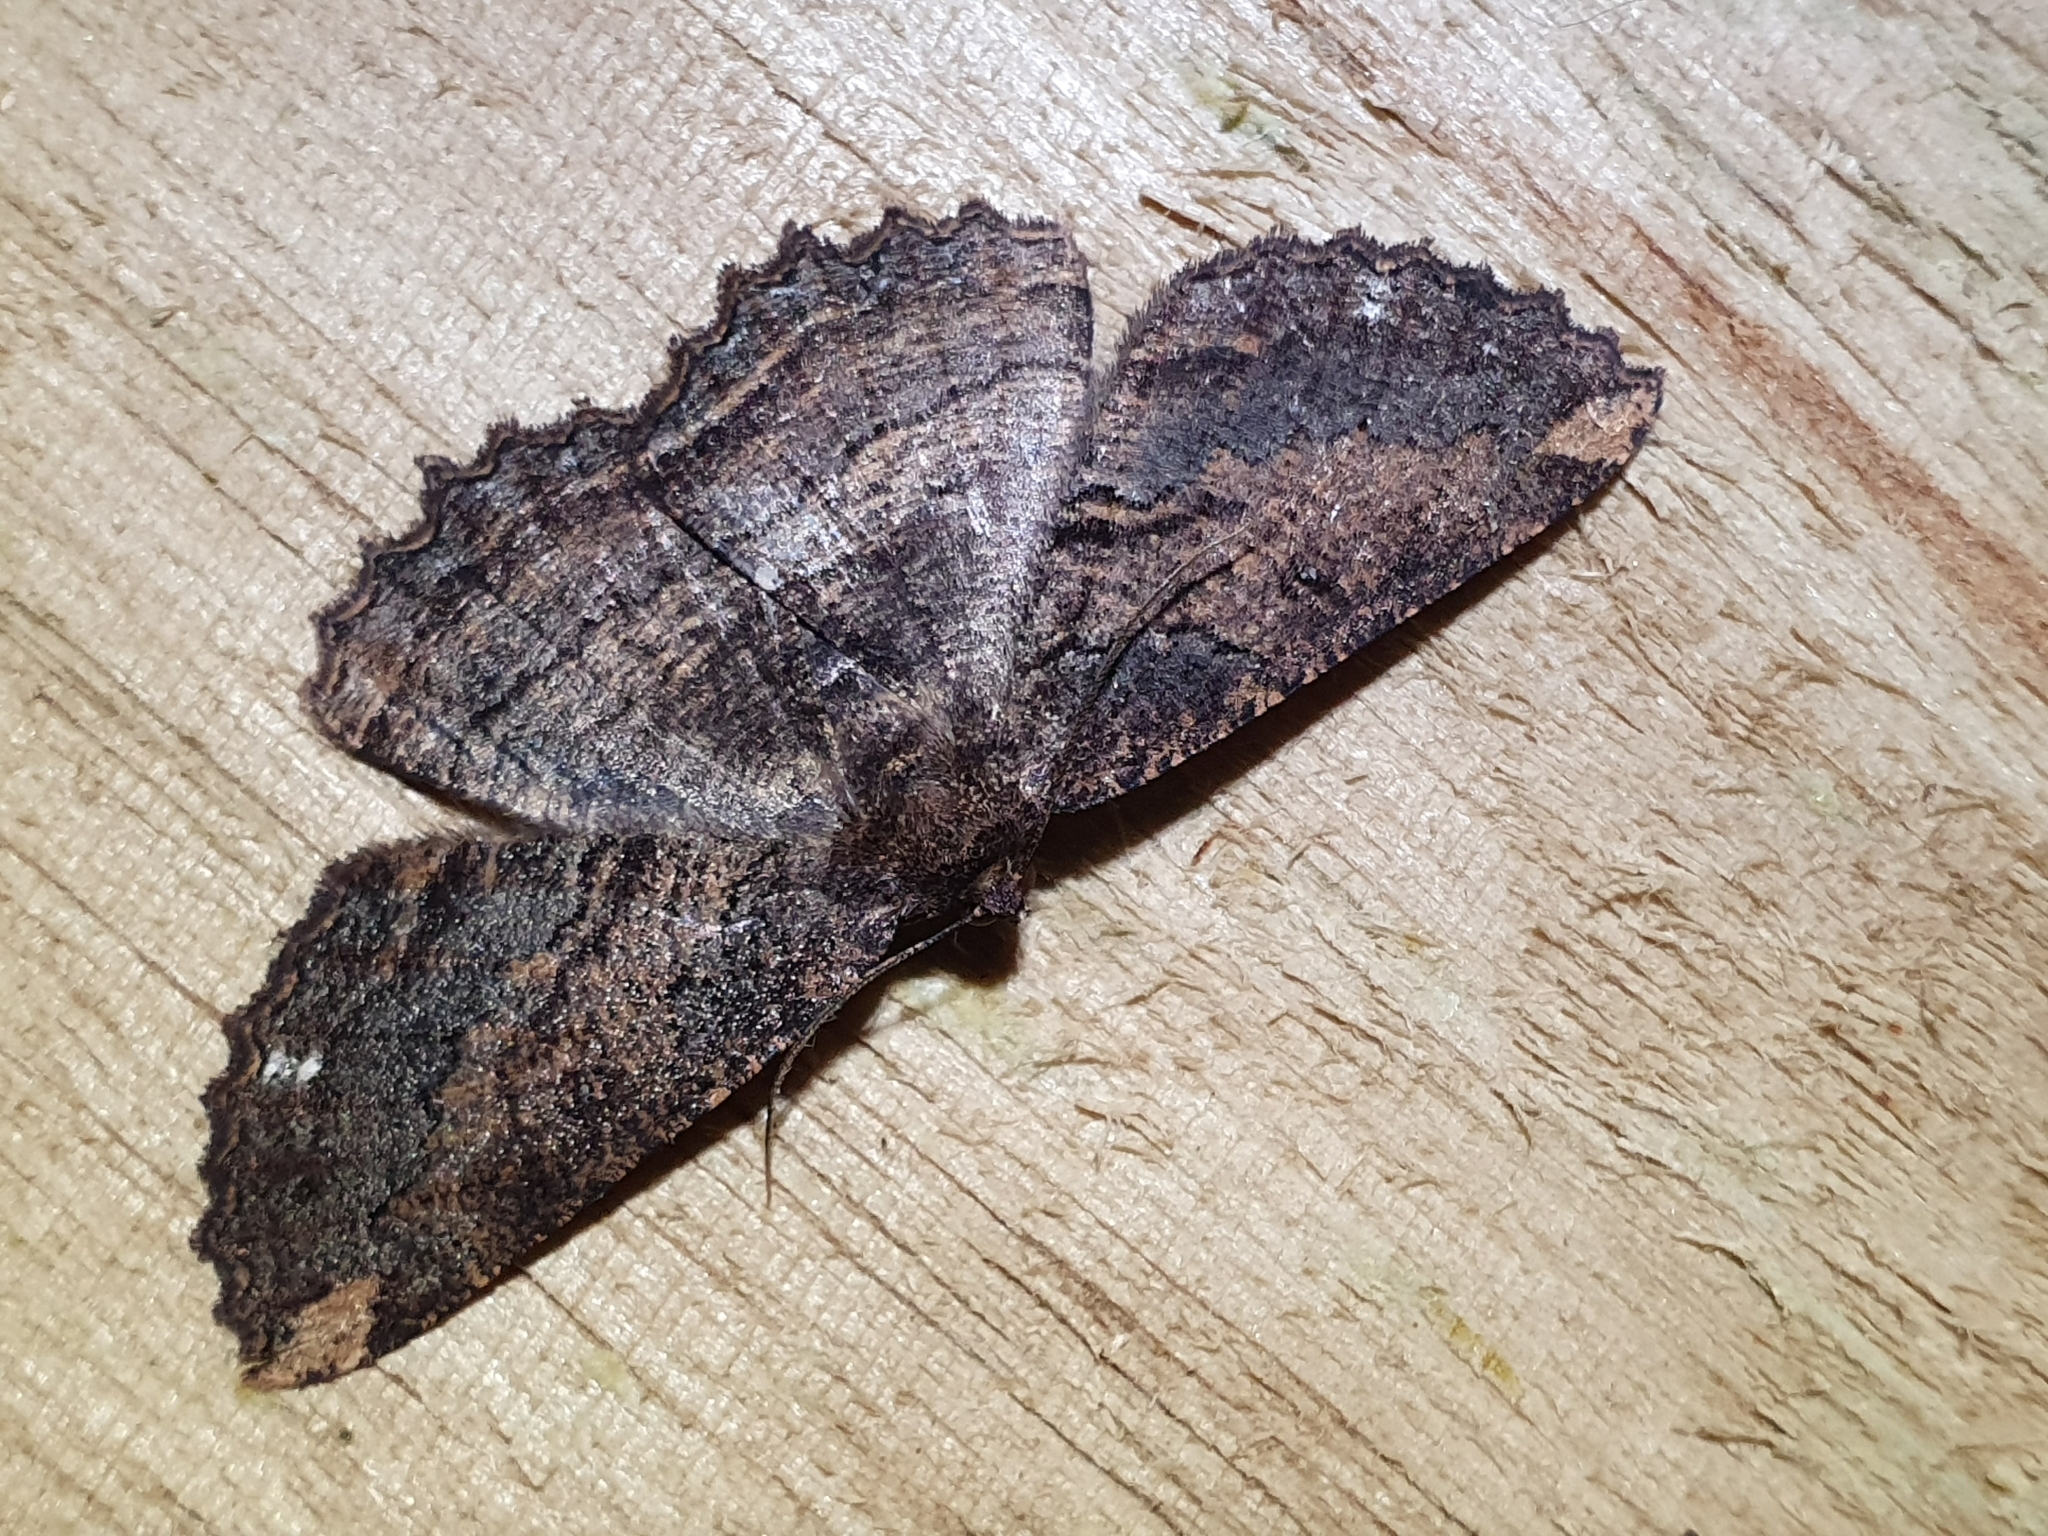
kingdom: Animalia
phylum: Arthropoda
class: Insecta
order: Lepidoptera
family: Geometridae
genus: Gellonia
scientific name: Gellonia dejectaria
